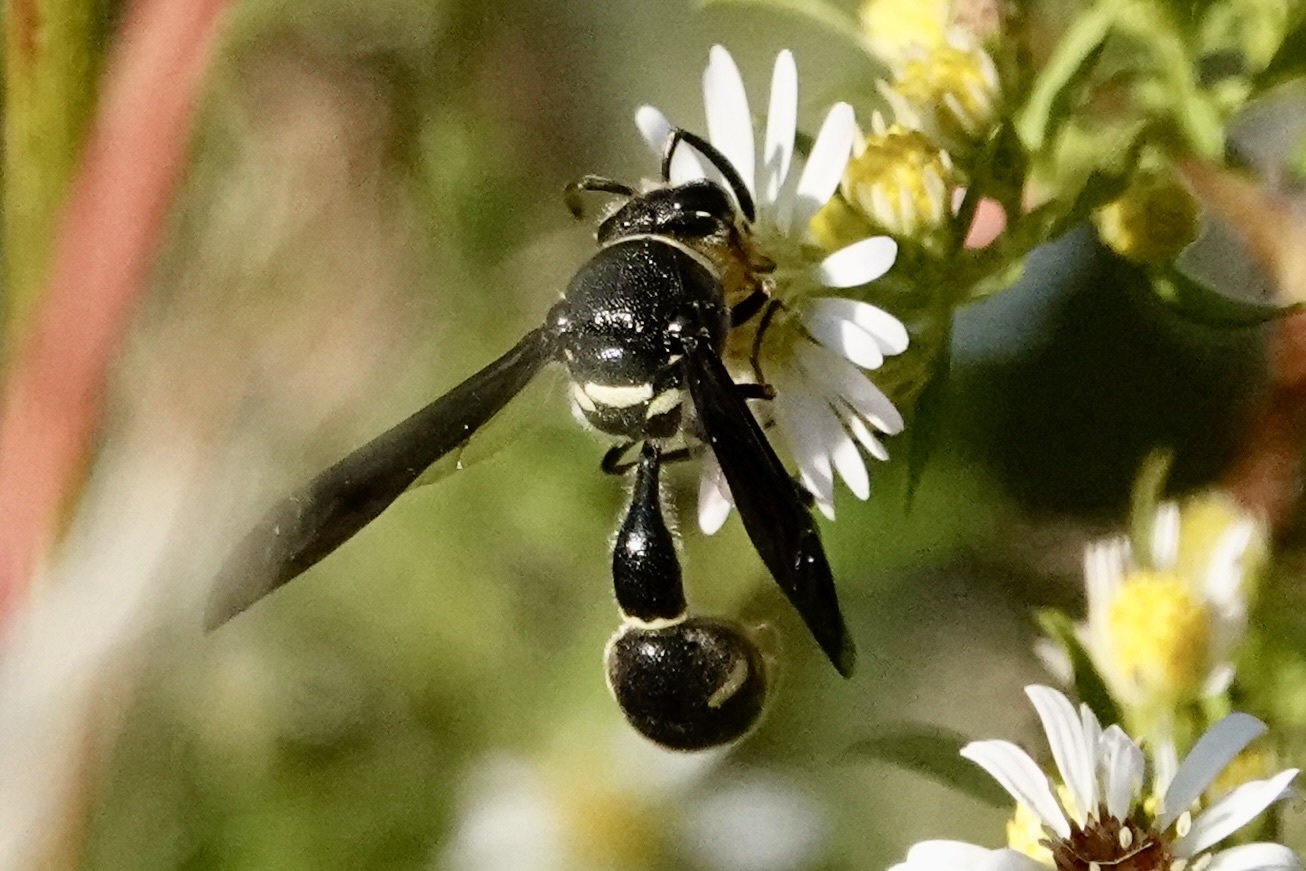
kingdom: Animalia
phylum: Arthropoda
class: Insecta
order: Hymenoptera
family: Vespidae
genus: Eumenes
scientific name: Eumenes fraternus
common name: Fraternal potter wasp
